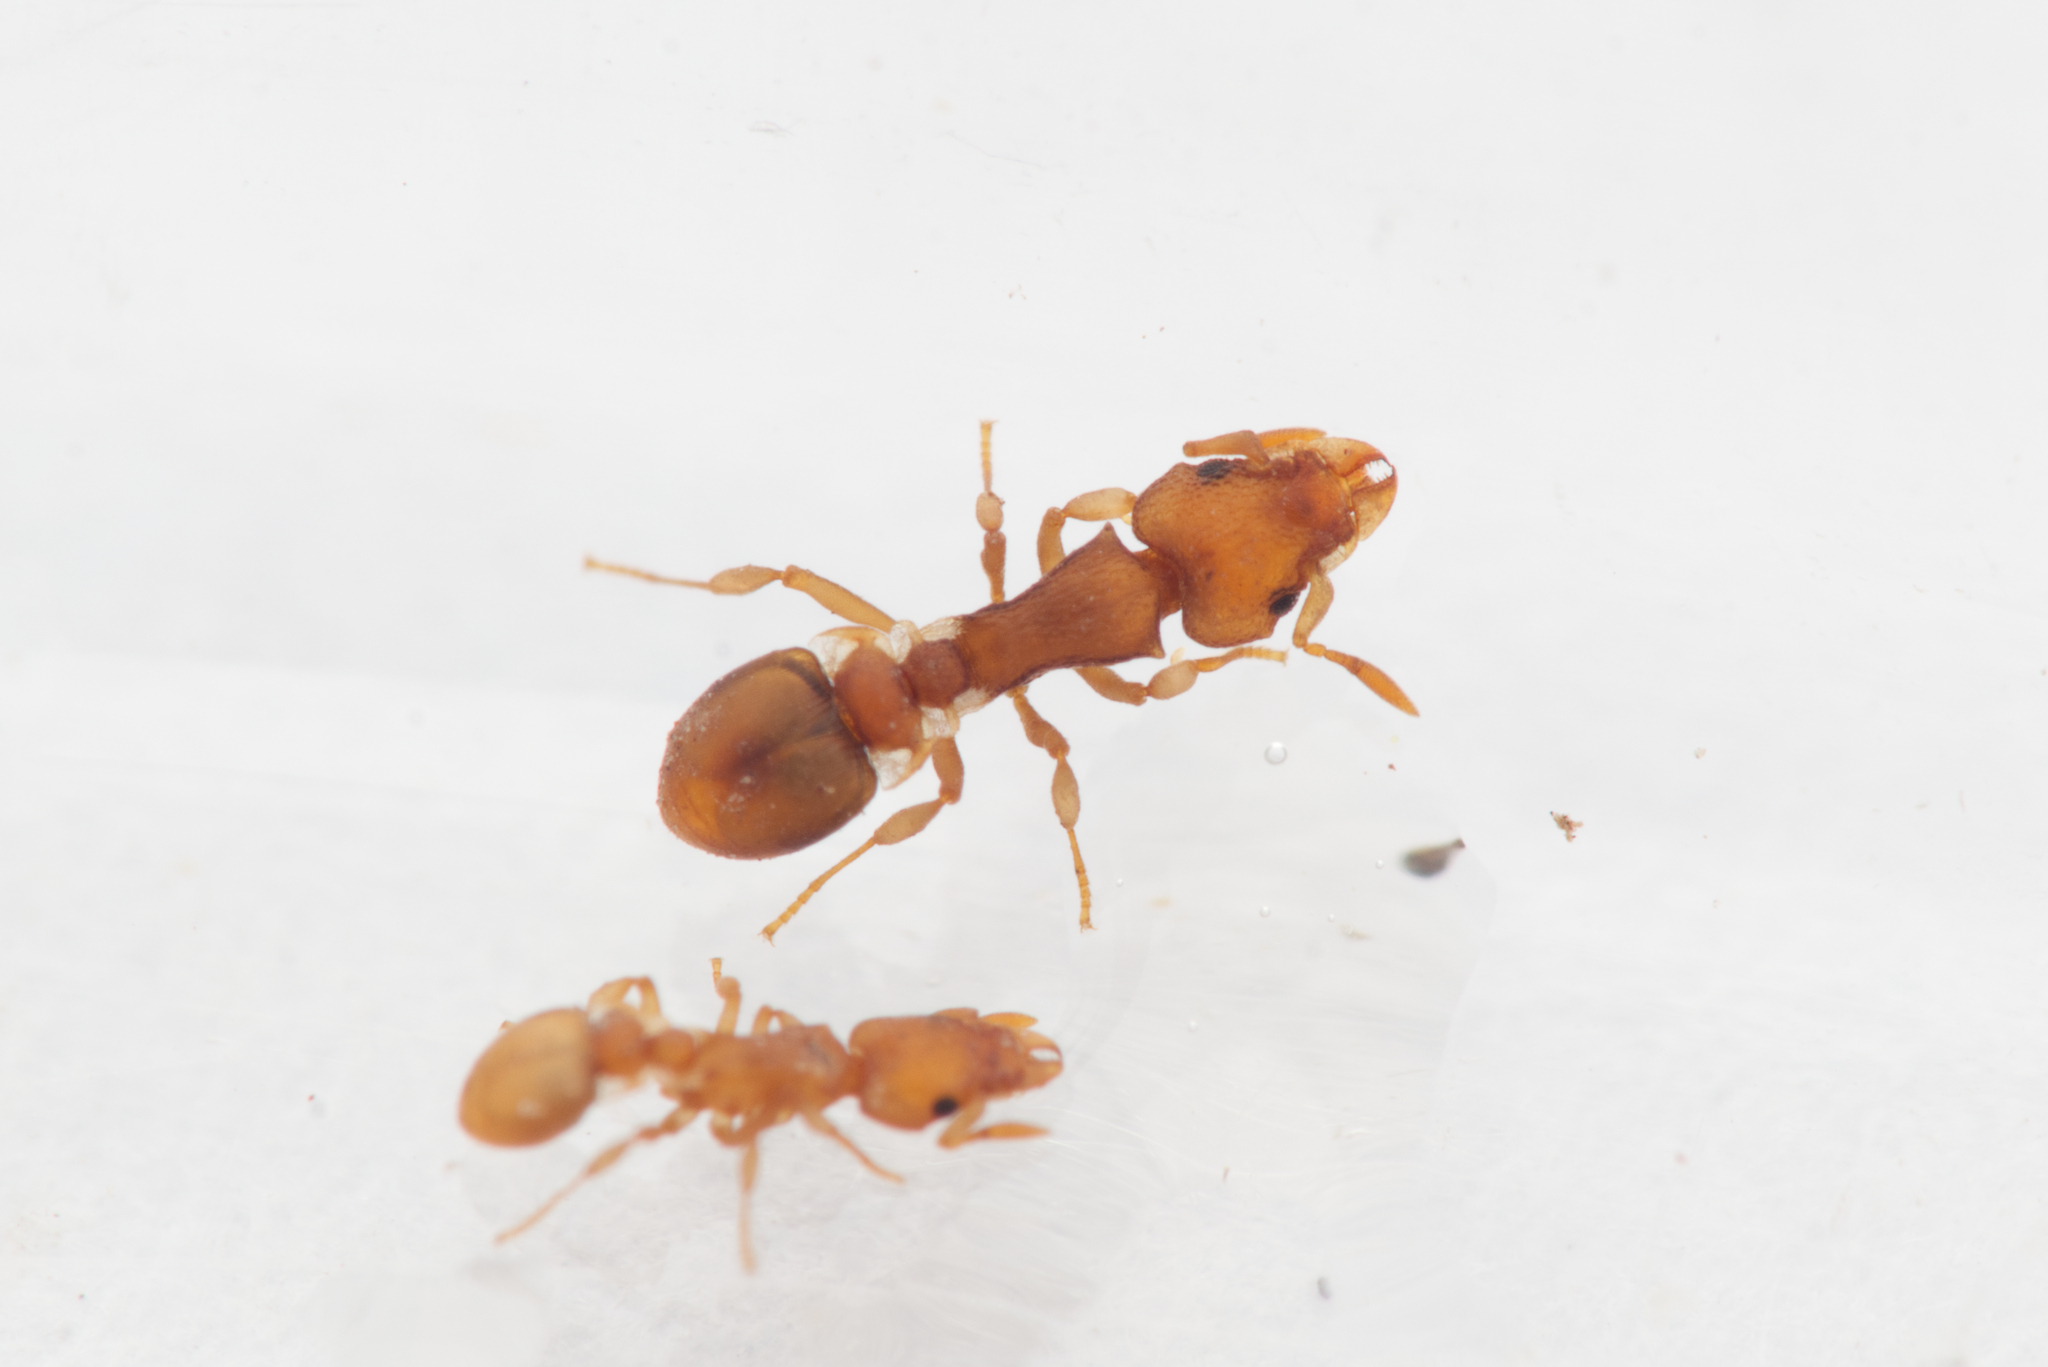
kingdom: Animalia
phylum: Arthropoda
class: Insecta
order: Hymenoptera
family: Formicidae
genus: Colobostruma
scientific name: Colobostruma
